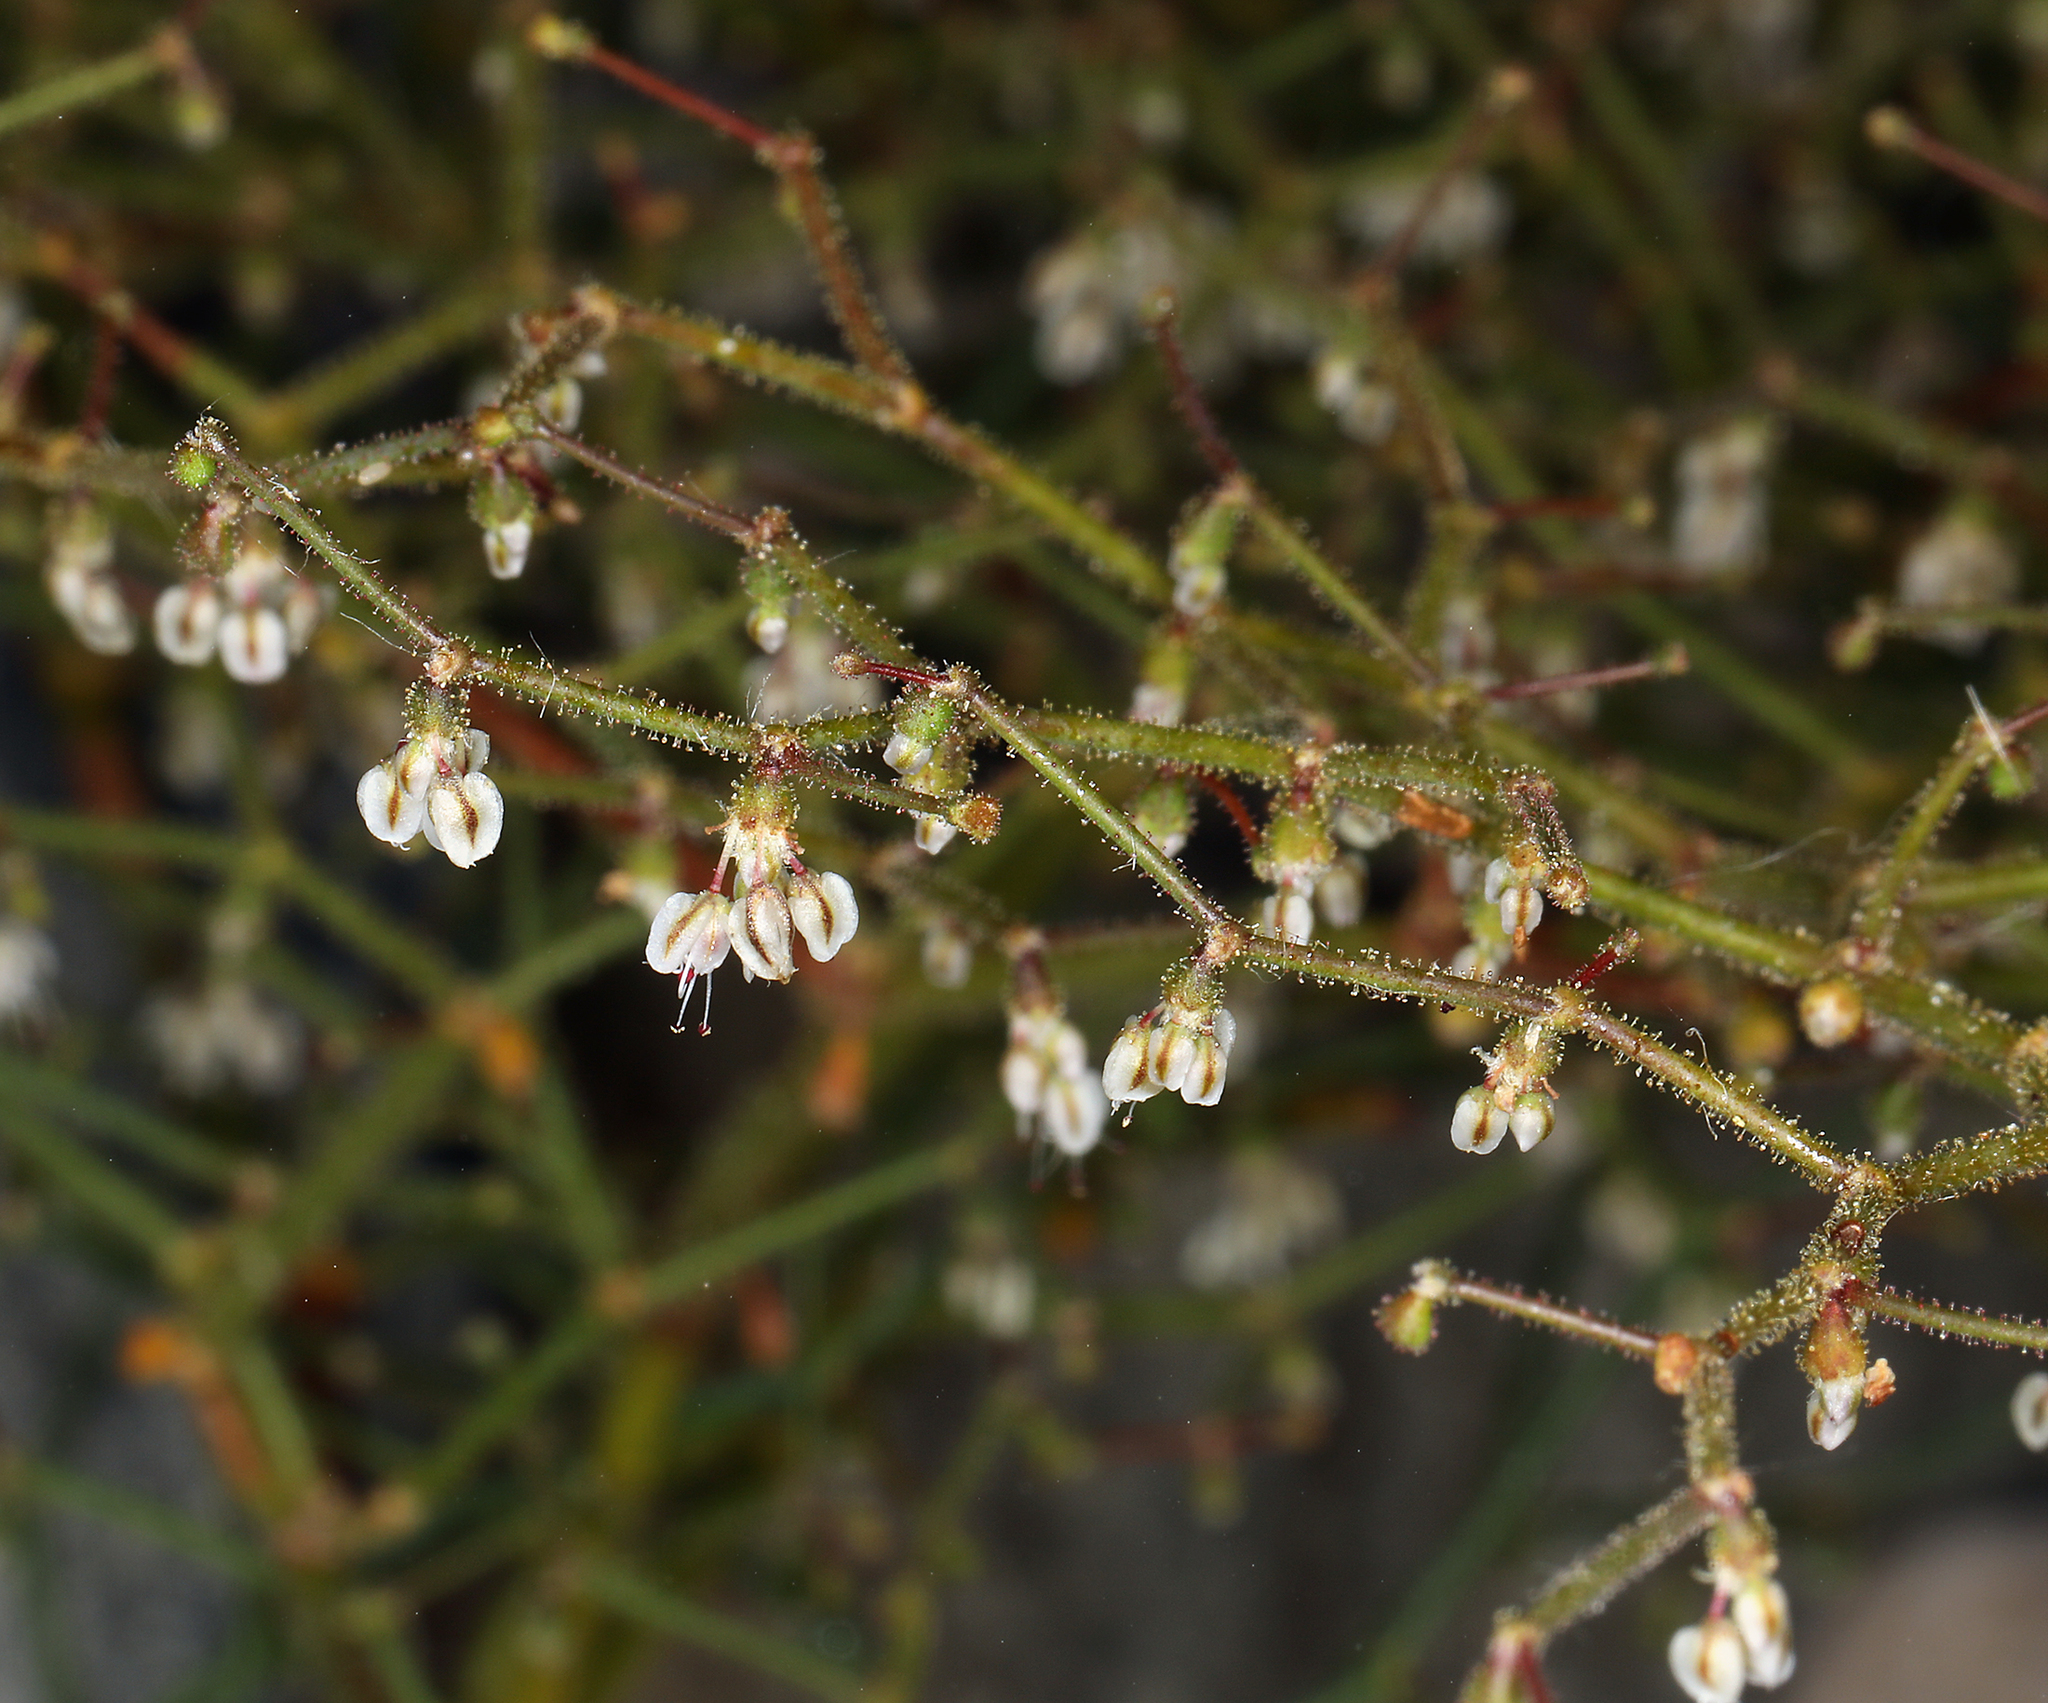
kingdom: Plantae
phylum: Tracheophyta
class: Magnoliopsida
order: Caryophyllales
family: Polygonaceae
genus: Eriogonum
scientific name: Eriogonum brachypodum
